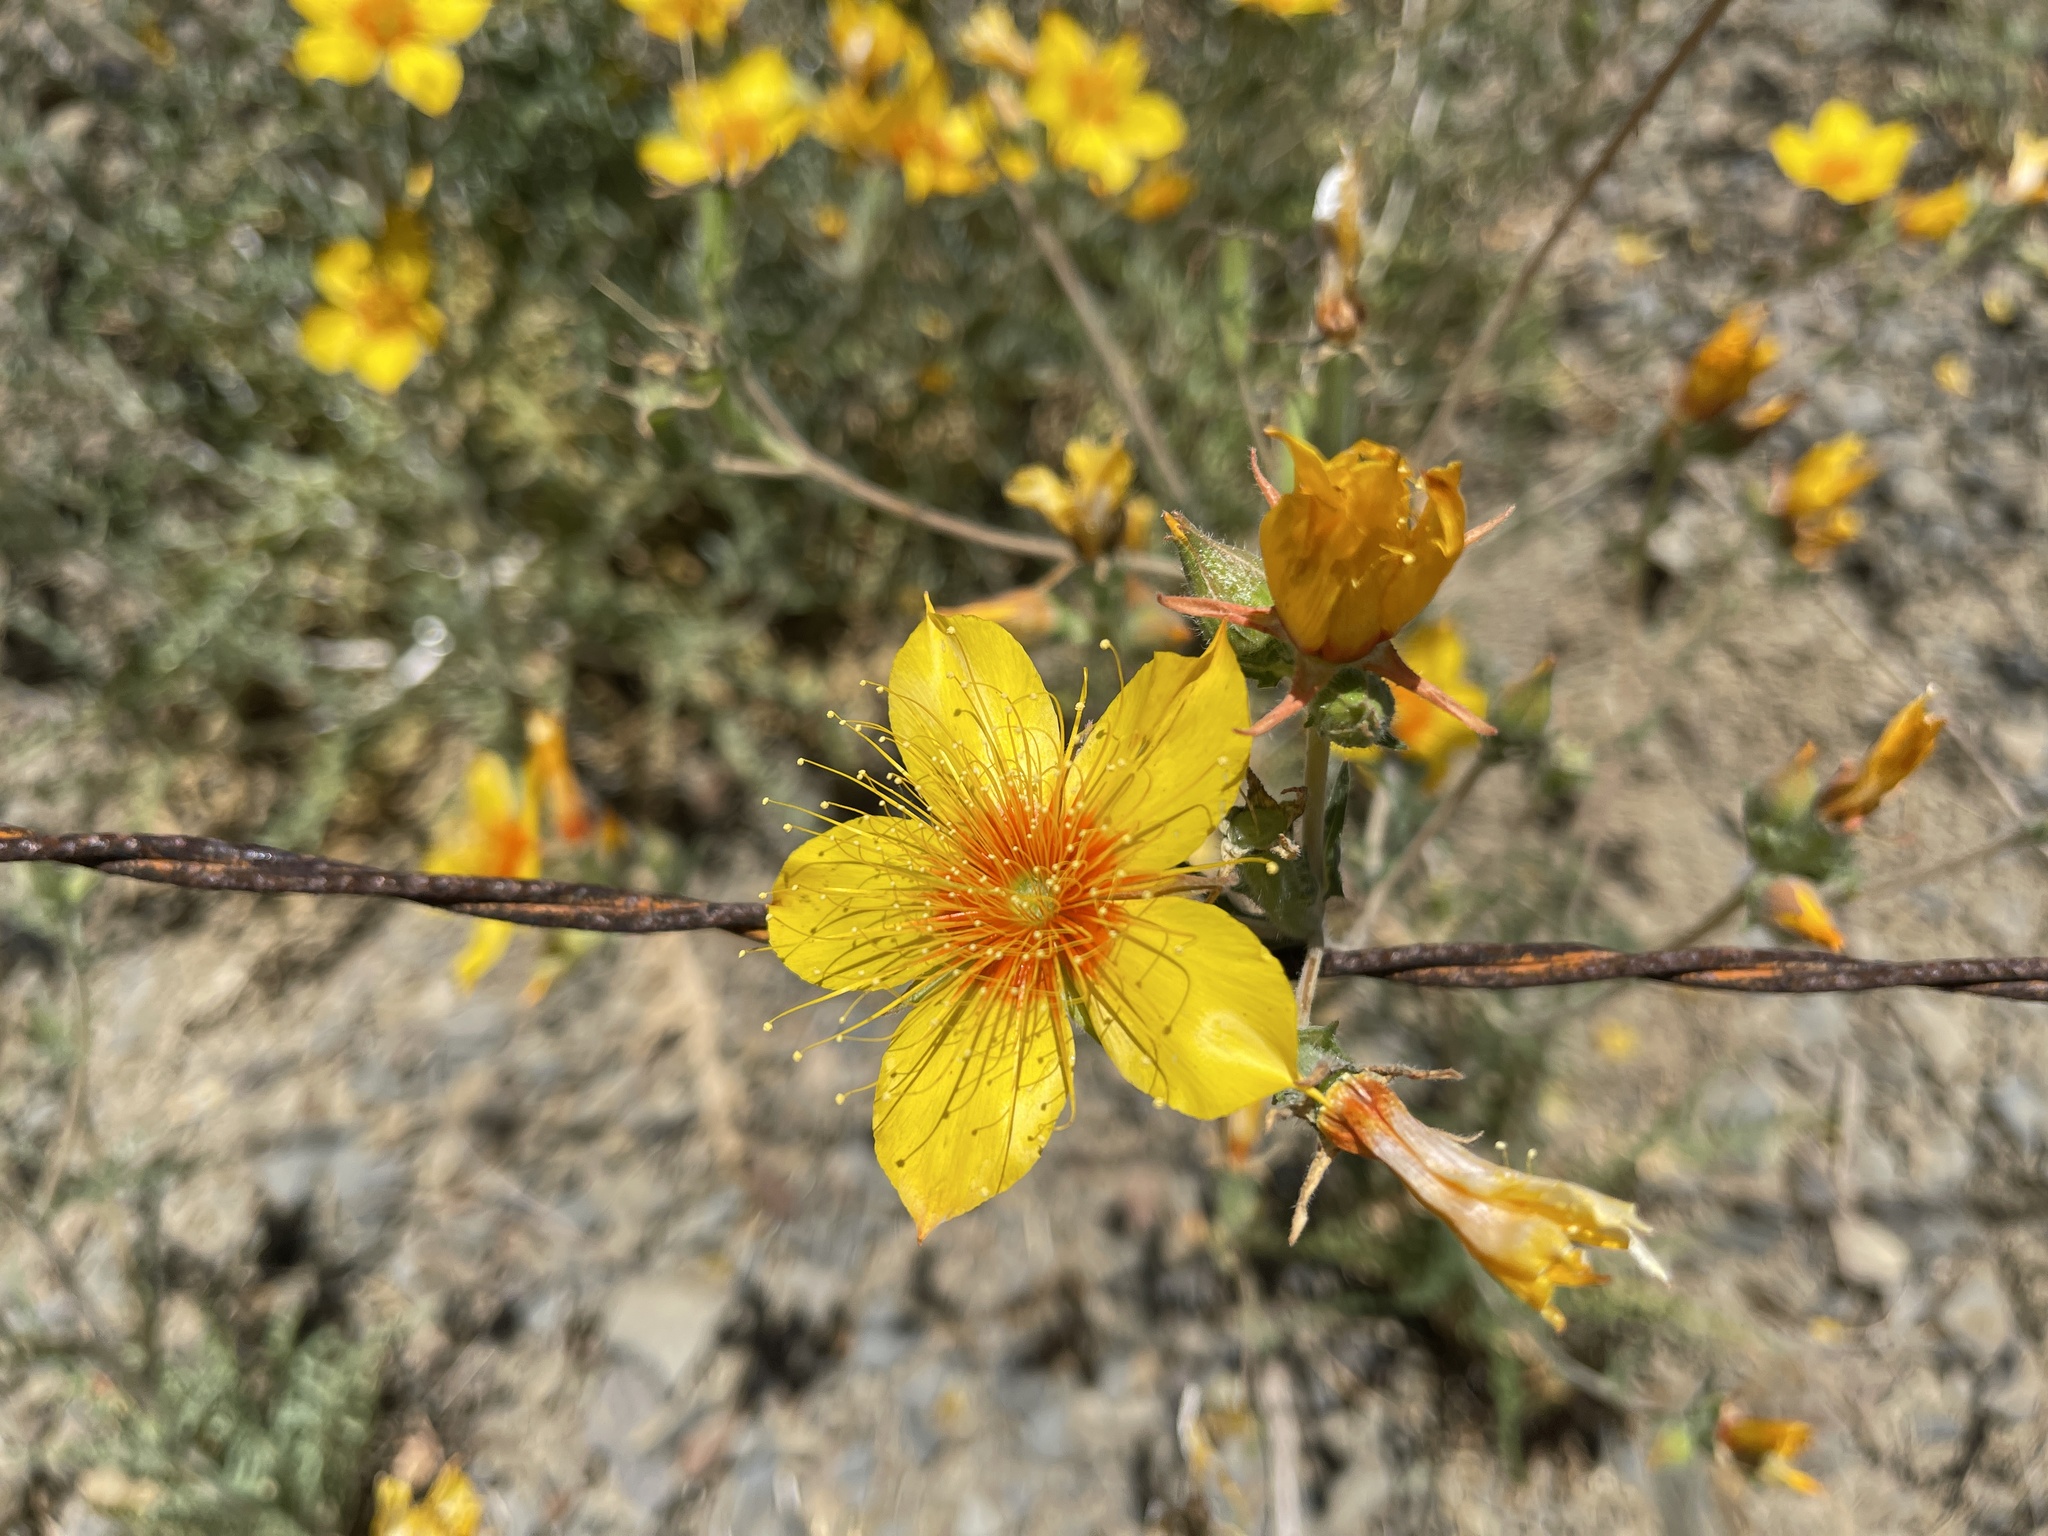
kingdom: Plantae
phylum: Tracheophyta
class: Magnoliopsida
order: Cornales
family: Loasaceae
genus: Mentzelia
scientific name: Mentzelia lindleyi
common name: Golden bartonia
